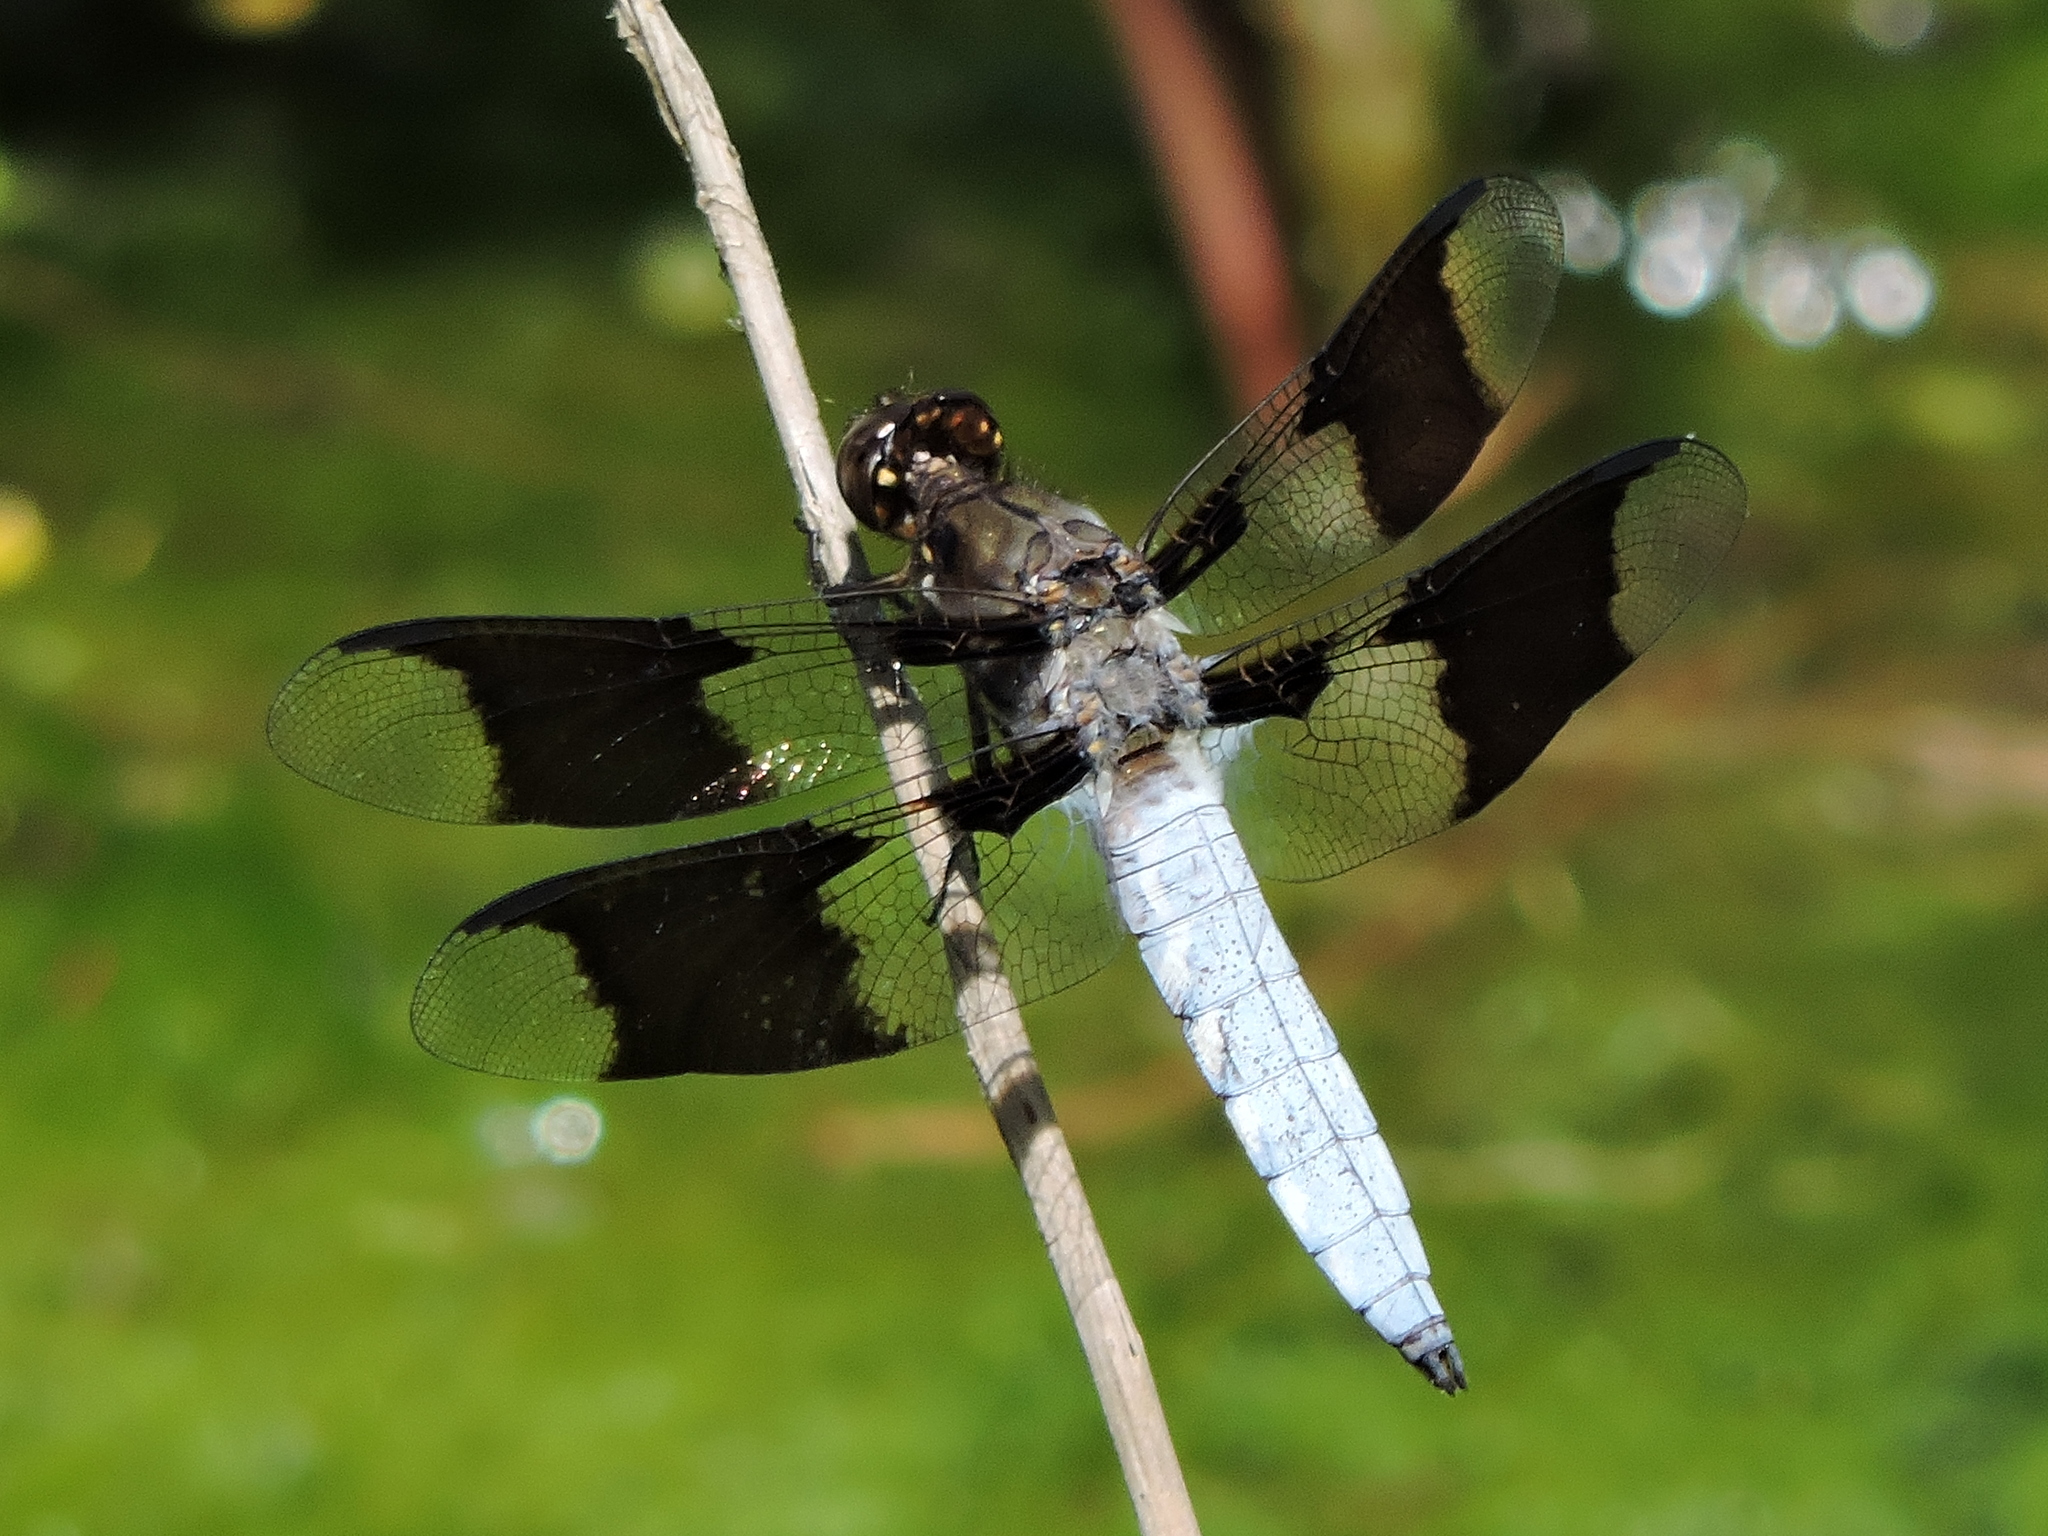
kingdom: Animalia
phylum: Arthropoda
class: Insecta
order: Odonata
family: Libellulidae
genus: Plathemis
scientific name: Plathemis lydia
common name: Common whitetail
